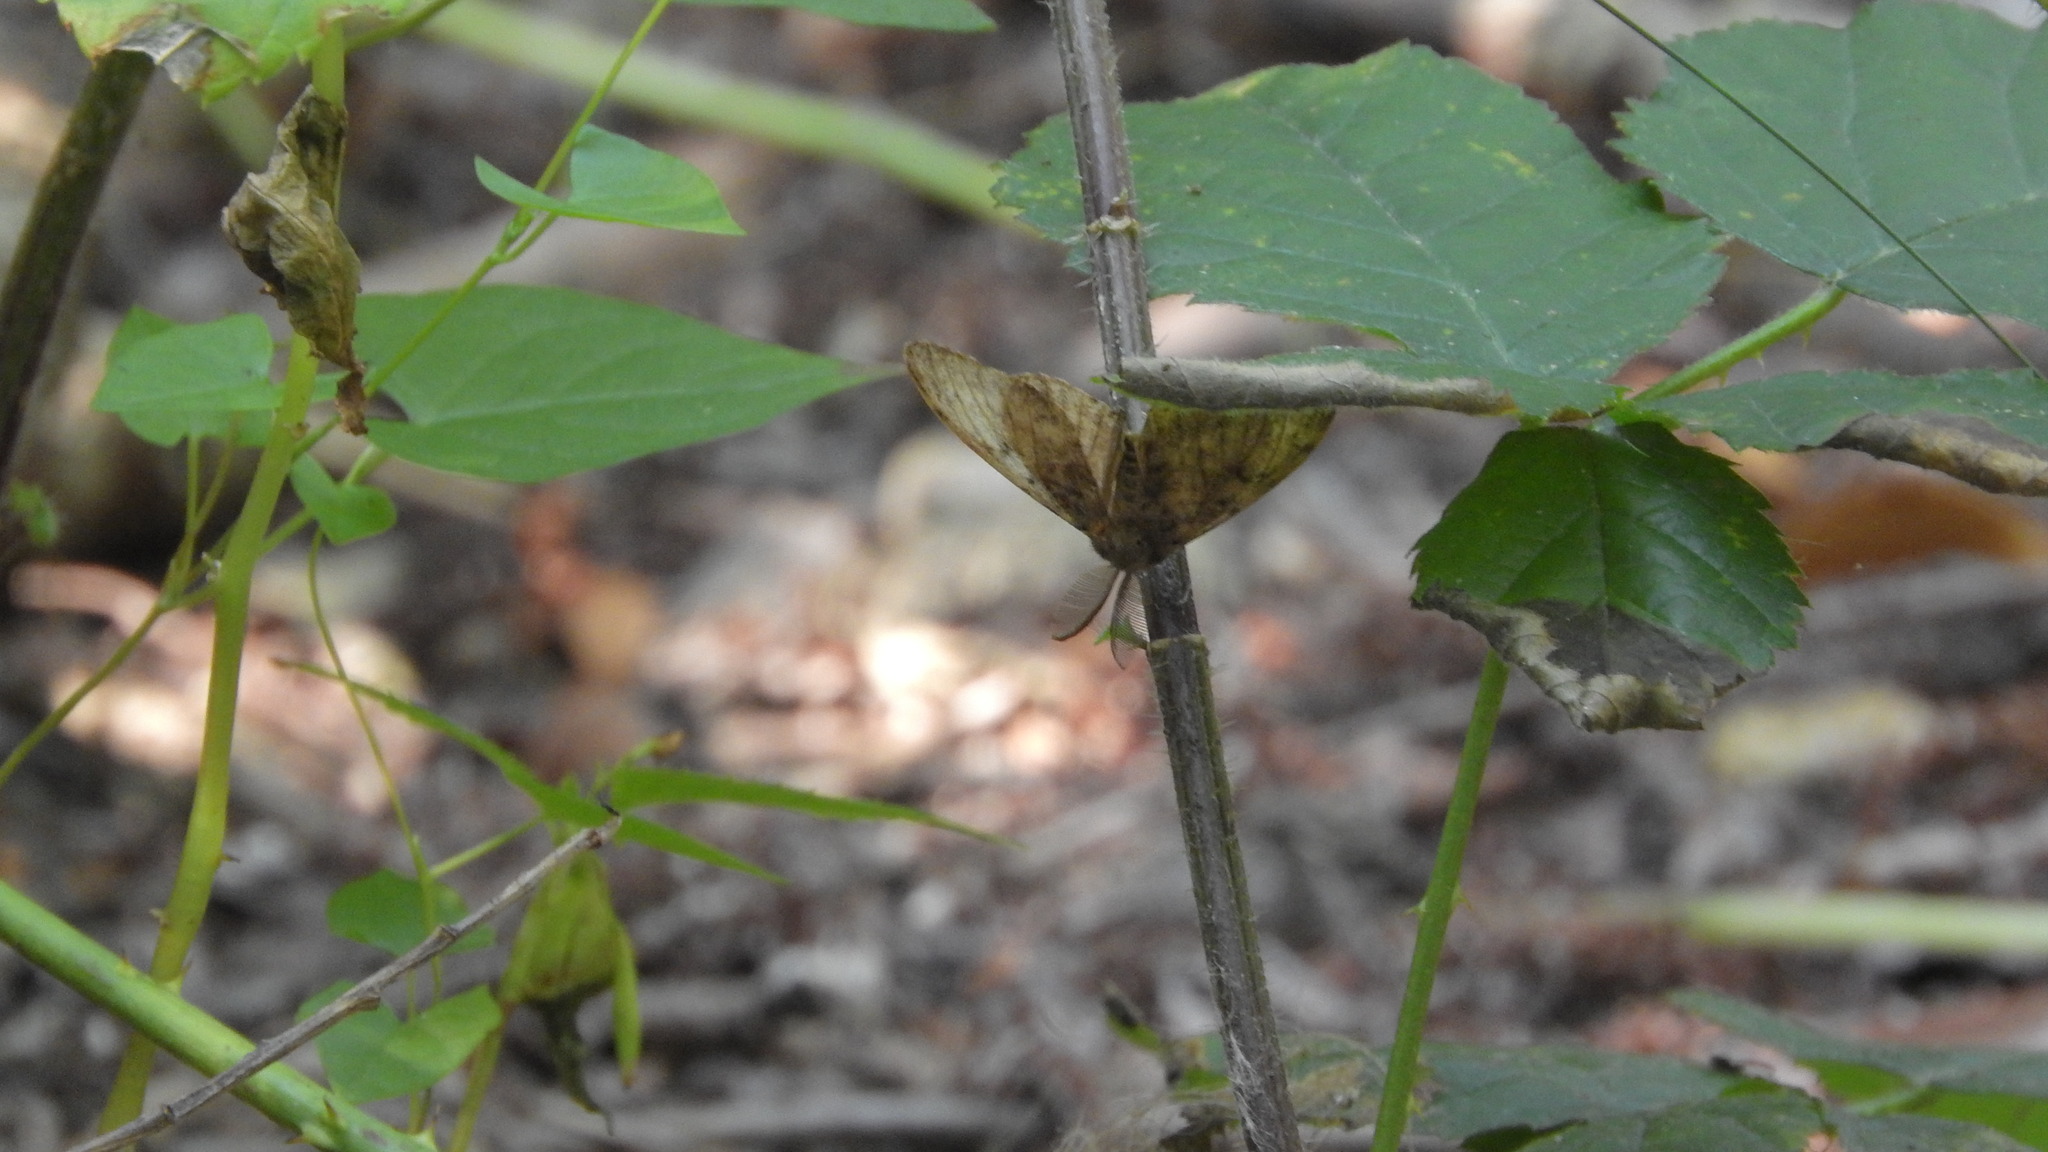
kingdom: Animalia
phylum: Arthropoda
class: Insecta
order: Lepidoptera
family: Erebidae
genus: Lymantria
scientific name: Lymantria dispar
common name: Gypsy moth
